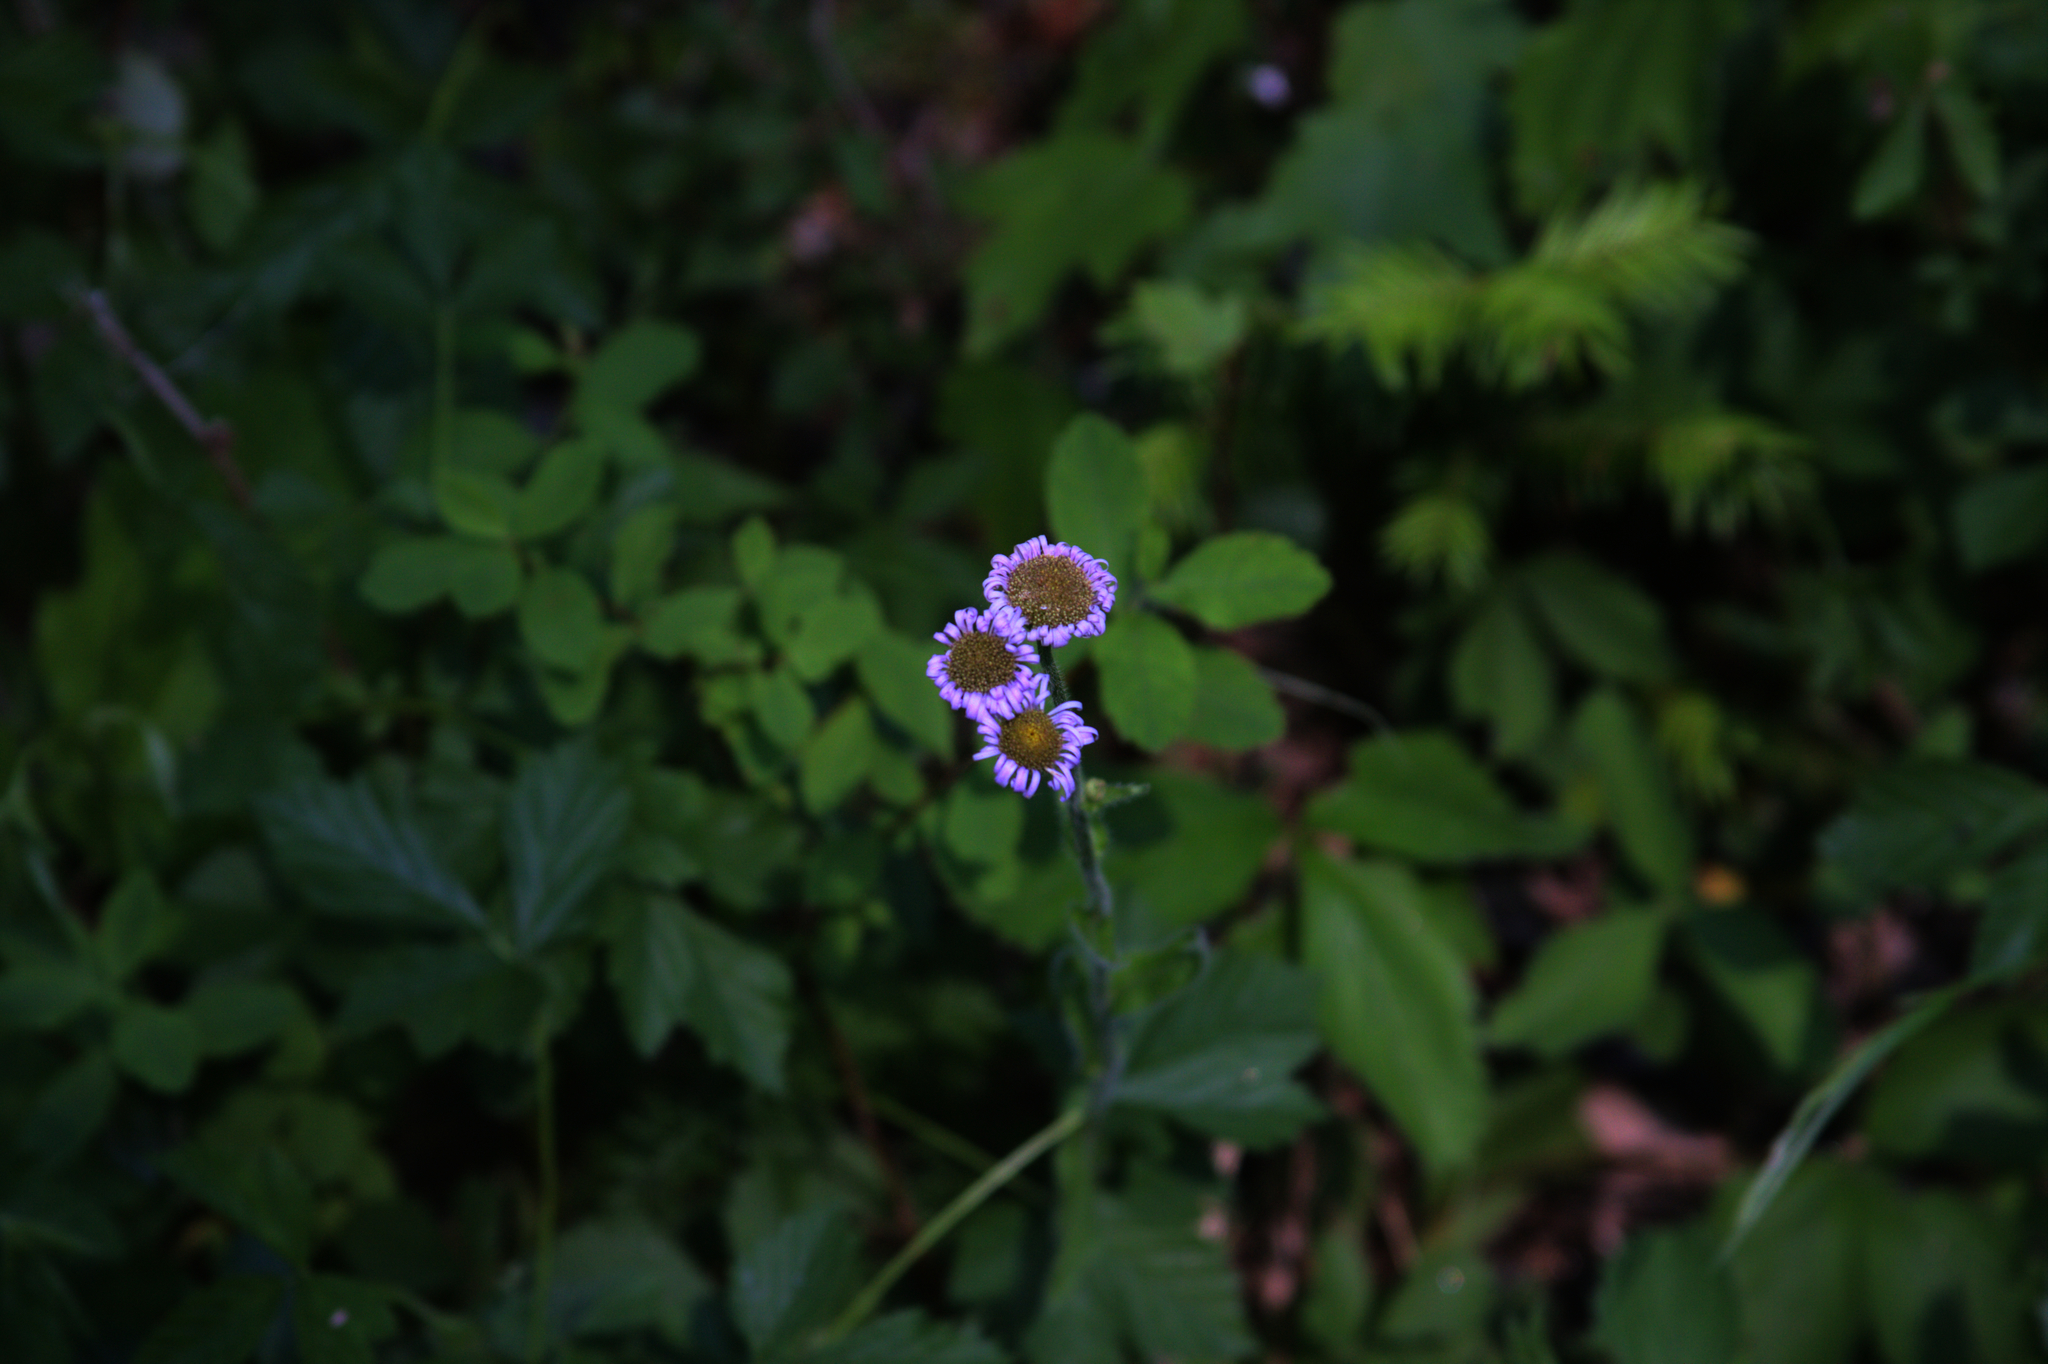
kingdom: Plantae
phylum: Tracheophyta
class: Magnoliopsida
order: Asterales
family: Asteraceae
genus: Erigeron
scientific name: Erigeron pulchellus
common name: Hairy fleabane
